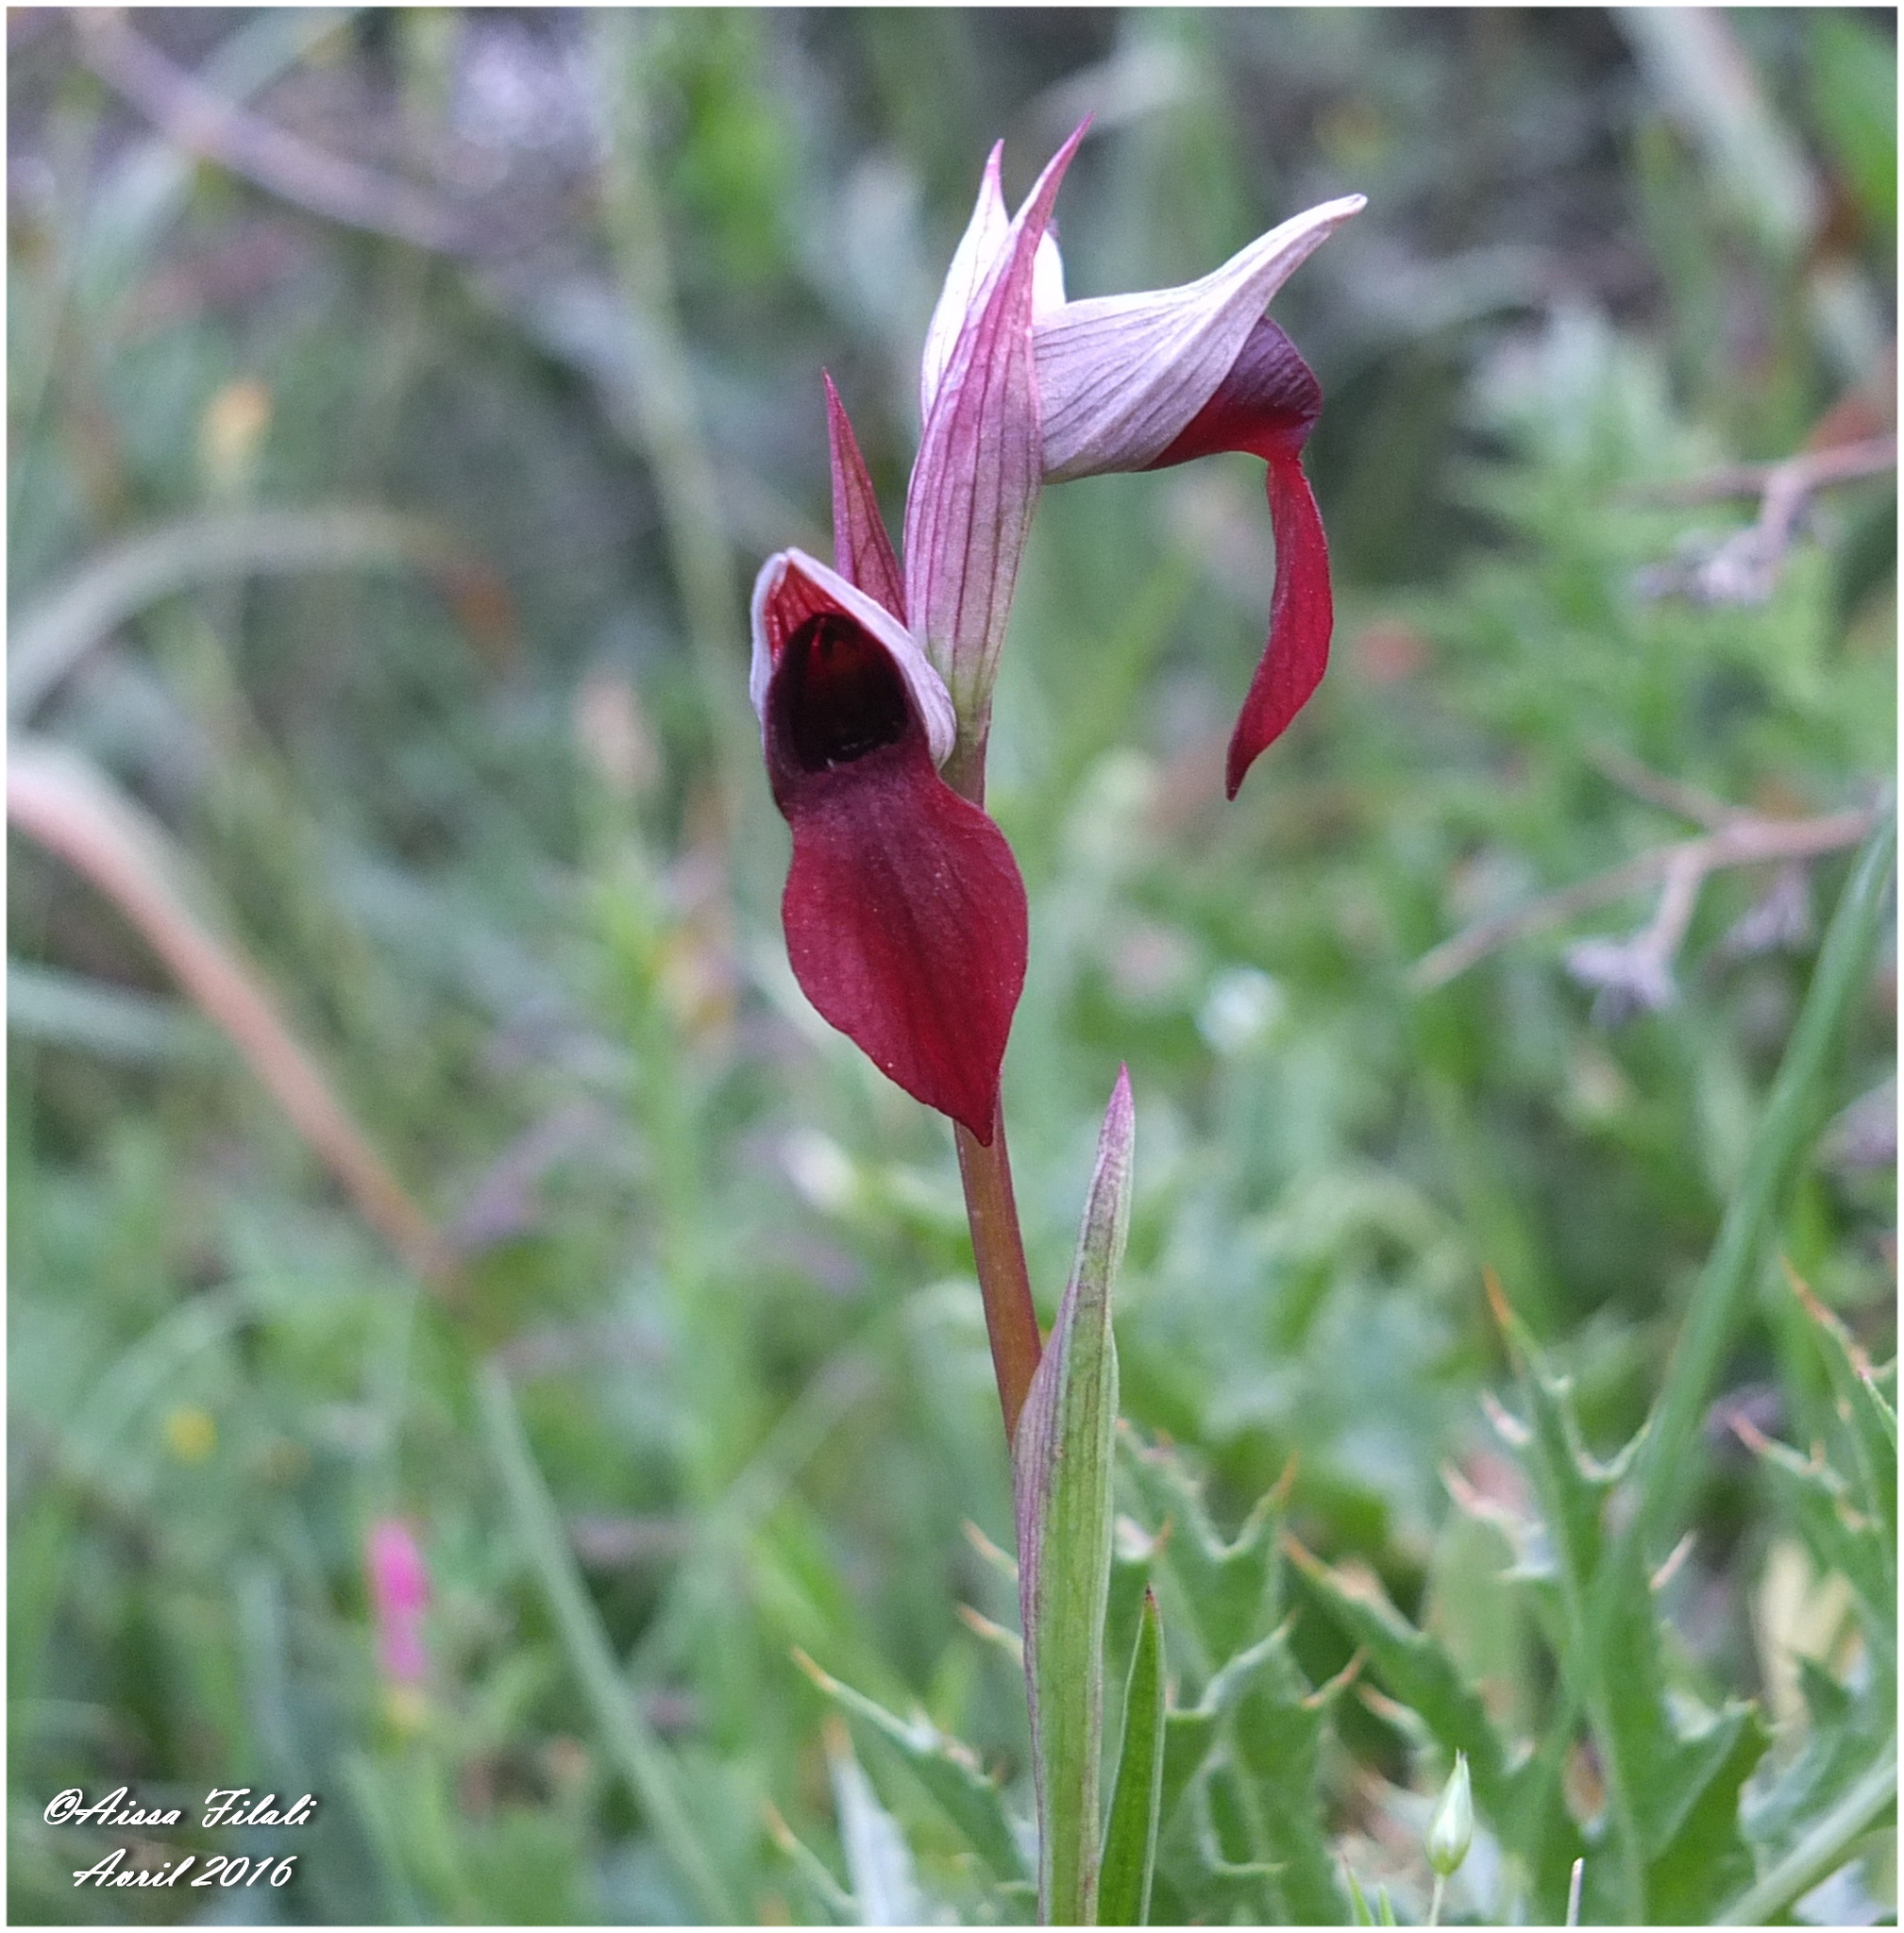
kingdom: Plantae
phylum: Tracheophyta
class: Liliopsida
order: Asparagales
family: Orchidaceae
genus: Serapias
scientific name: Serapias lingua
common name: Tongue-orchid
